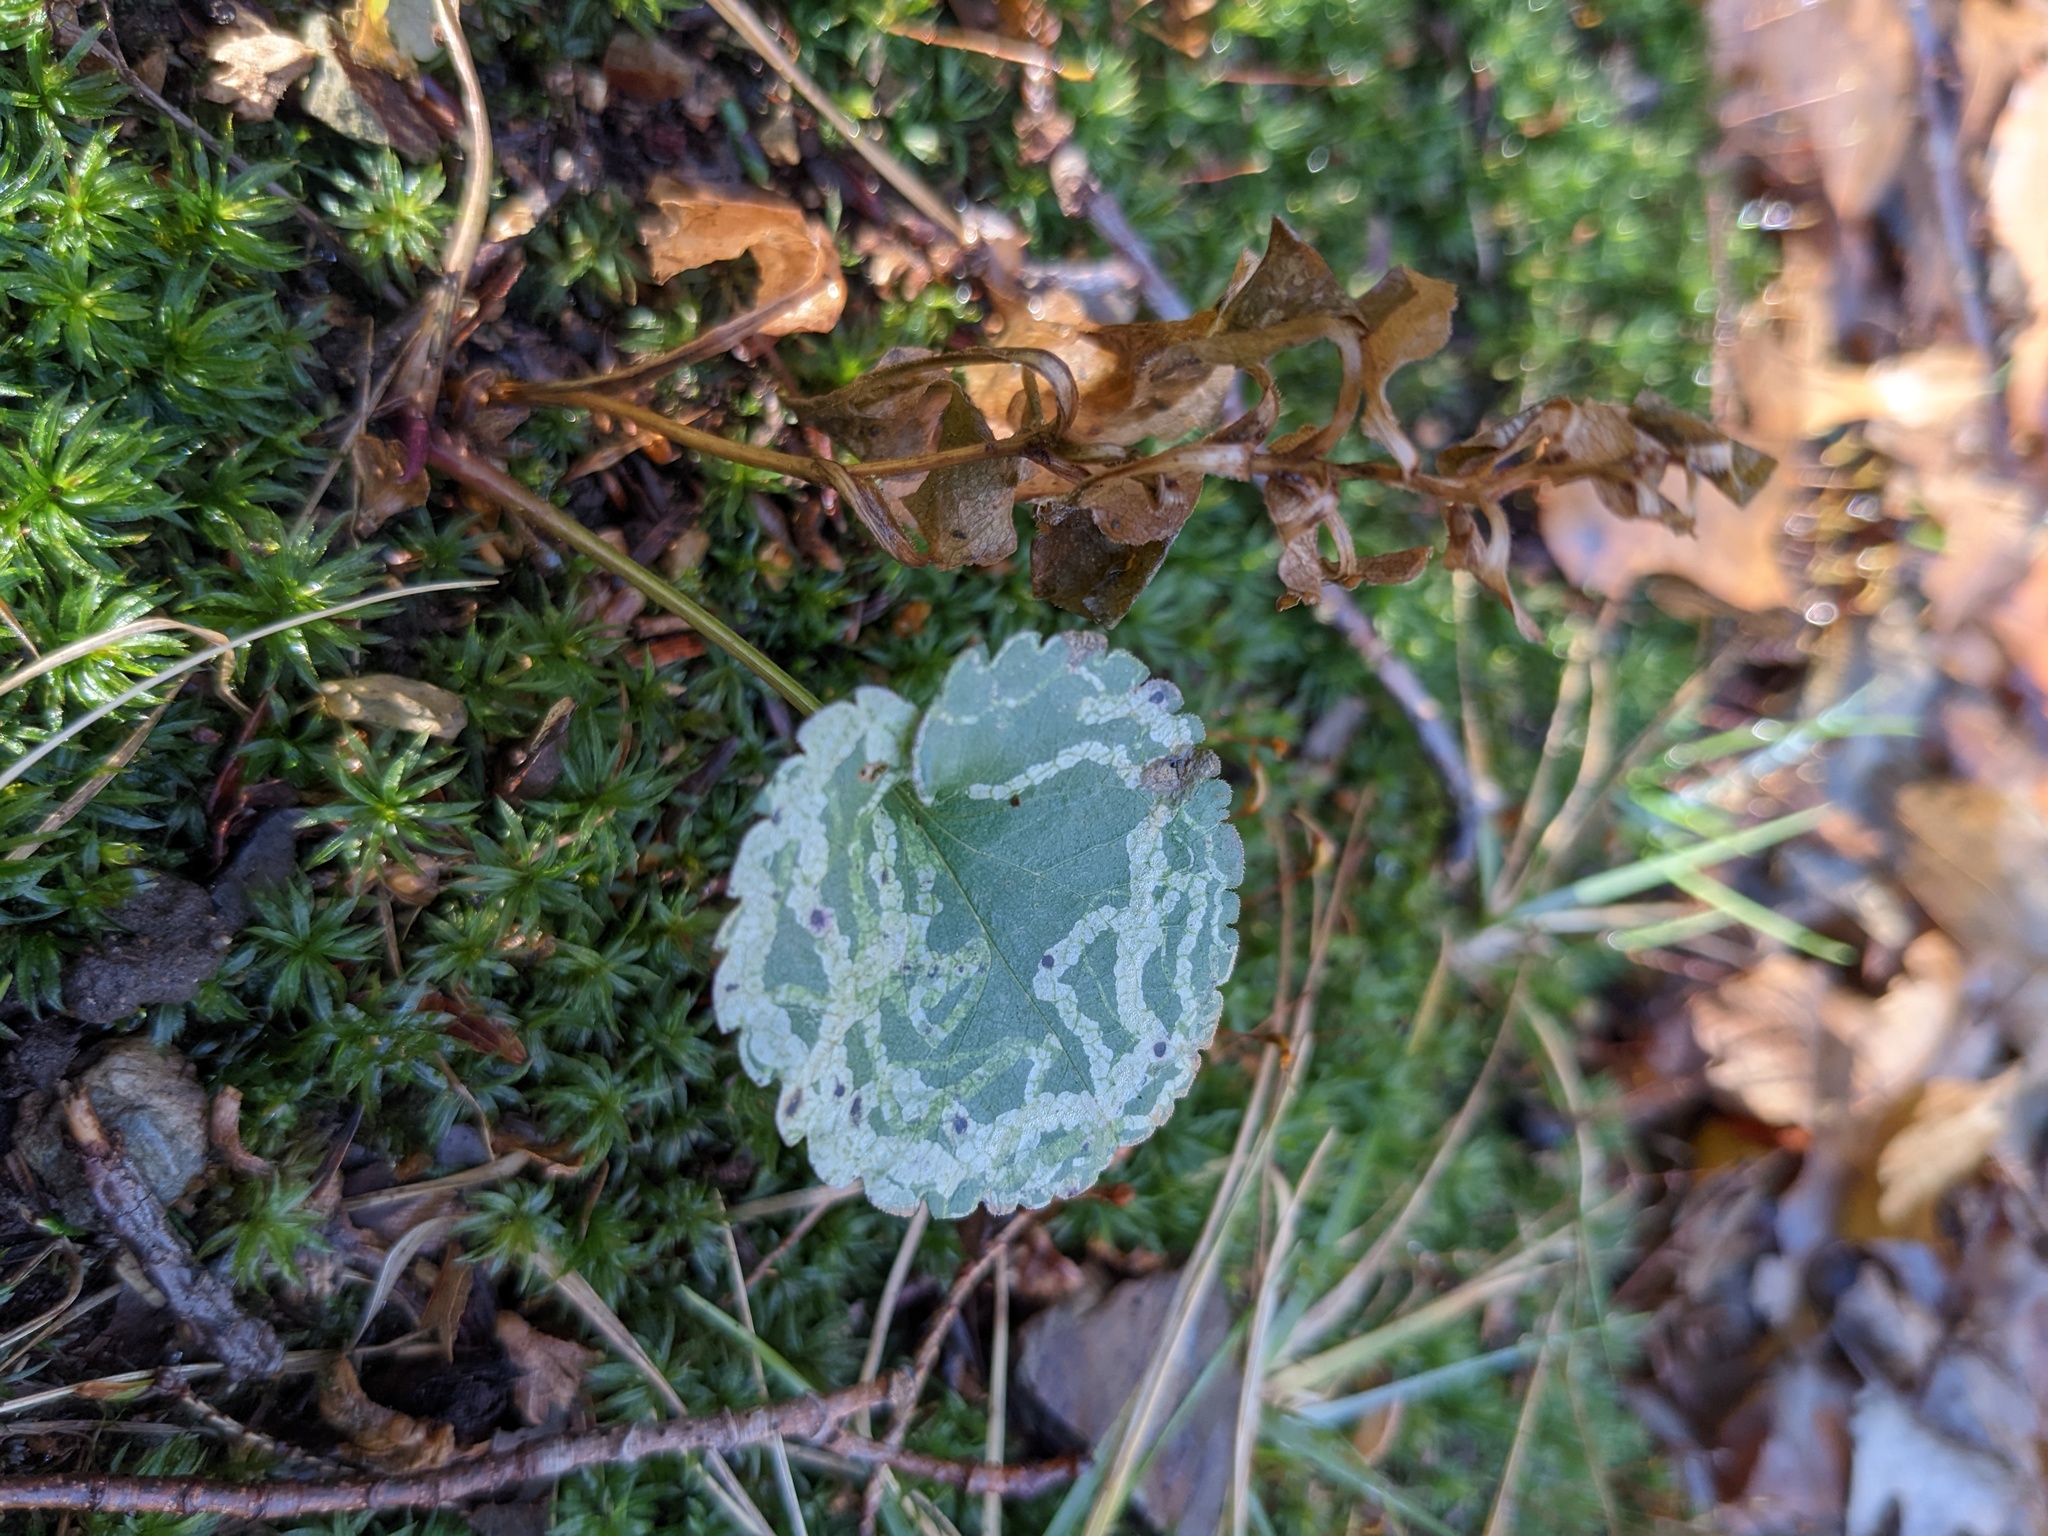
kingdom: Animalia
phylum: Arthropoda
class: Insecta
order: Diptera
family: Agromyzidae
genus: Ophiomyia
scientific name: Ophiomyia parda
